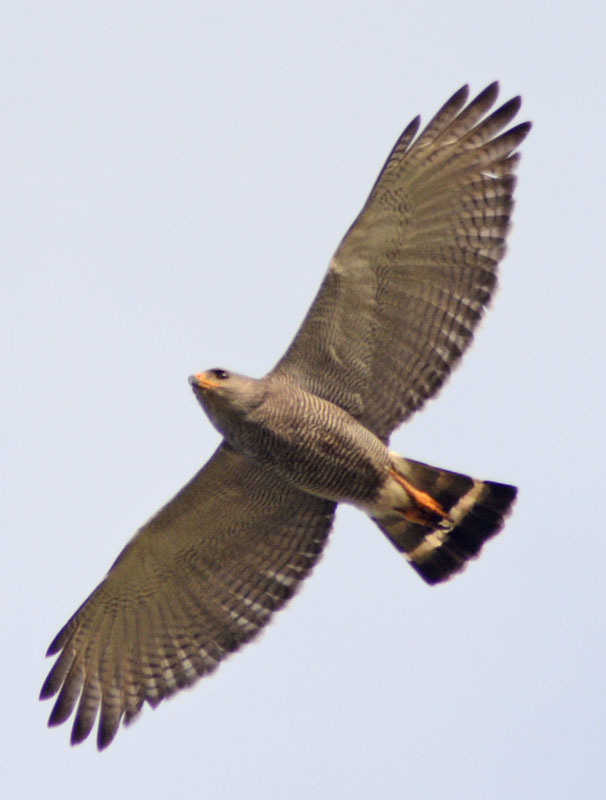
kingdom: Animalia
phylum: Chordata
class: Aves
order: Accipitriformes
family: Accipitridae
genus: Buteo
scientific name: Buteo nitidus
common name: Grey-lined hawk
